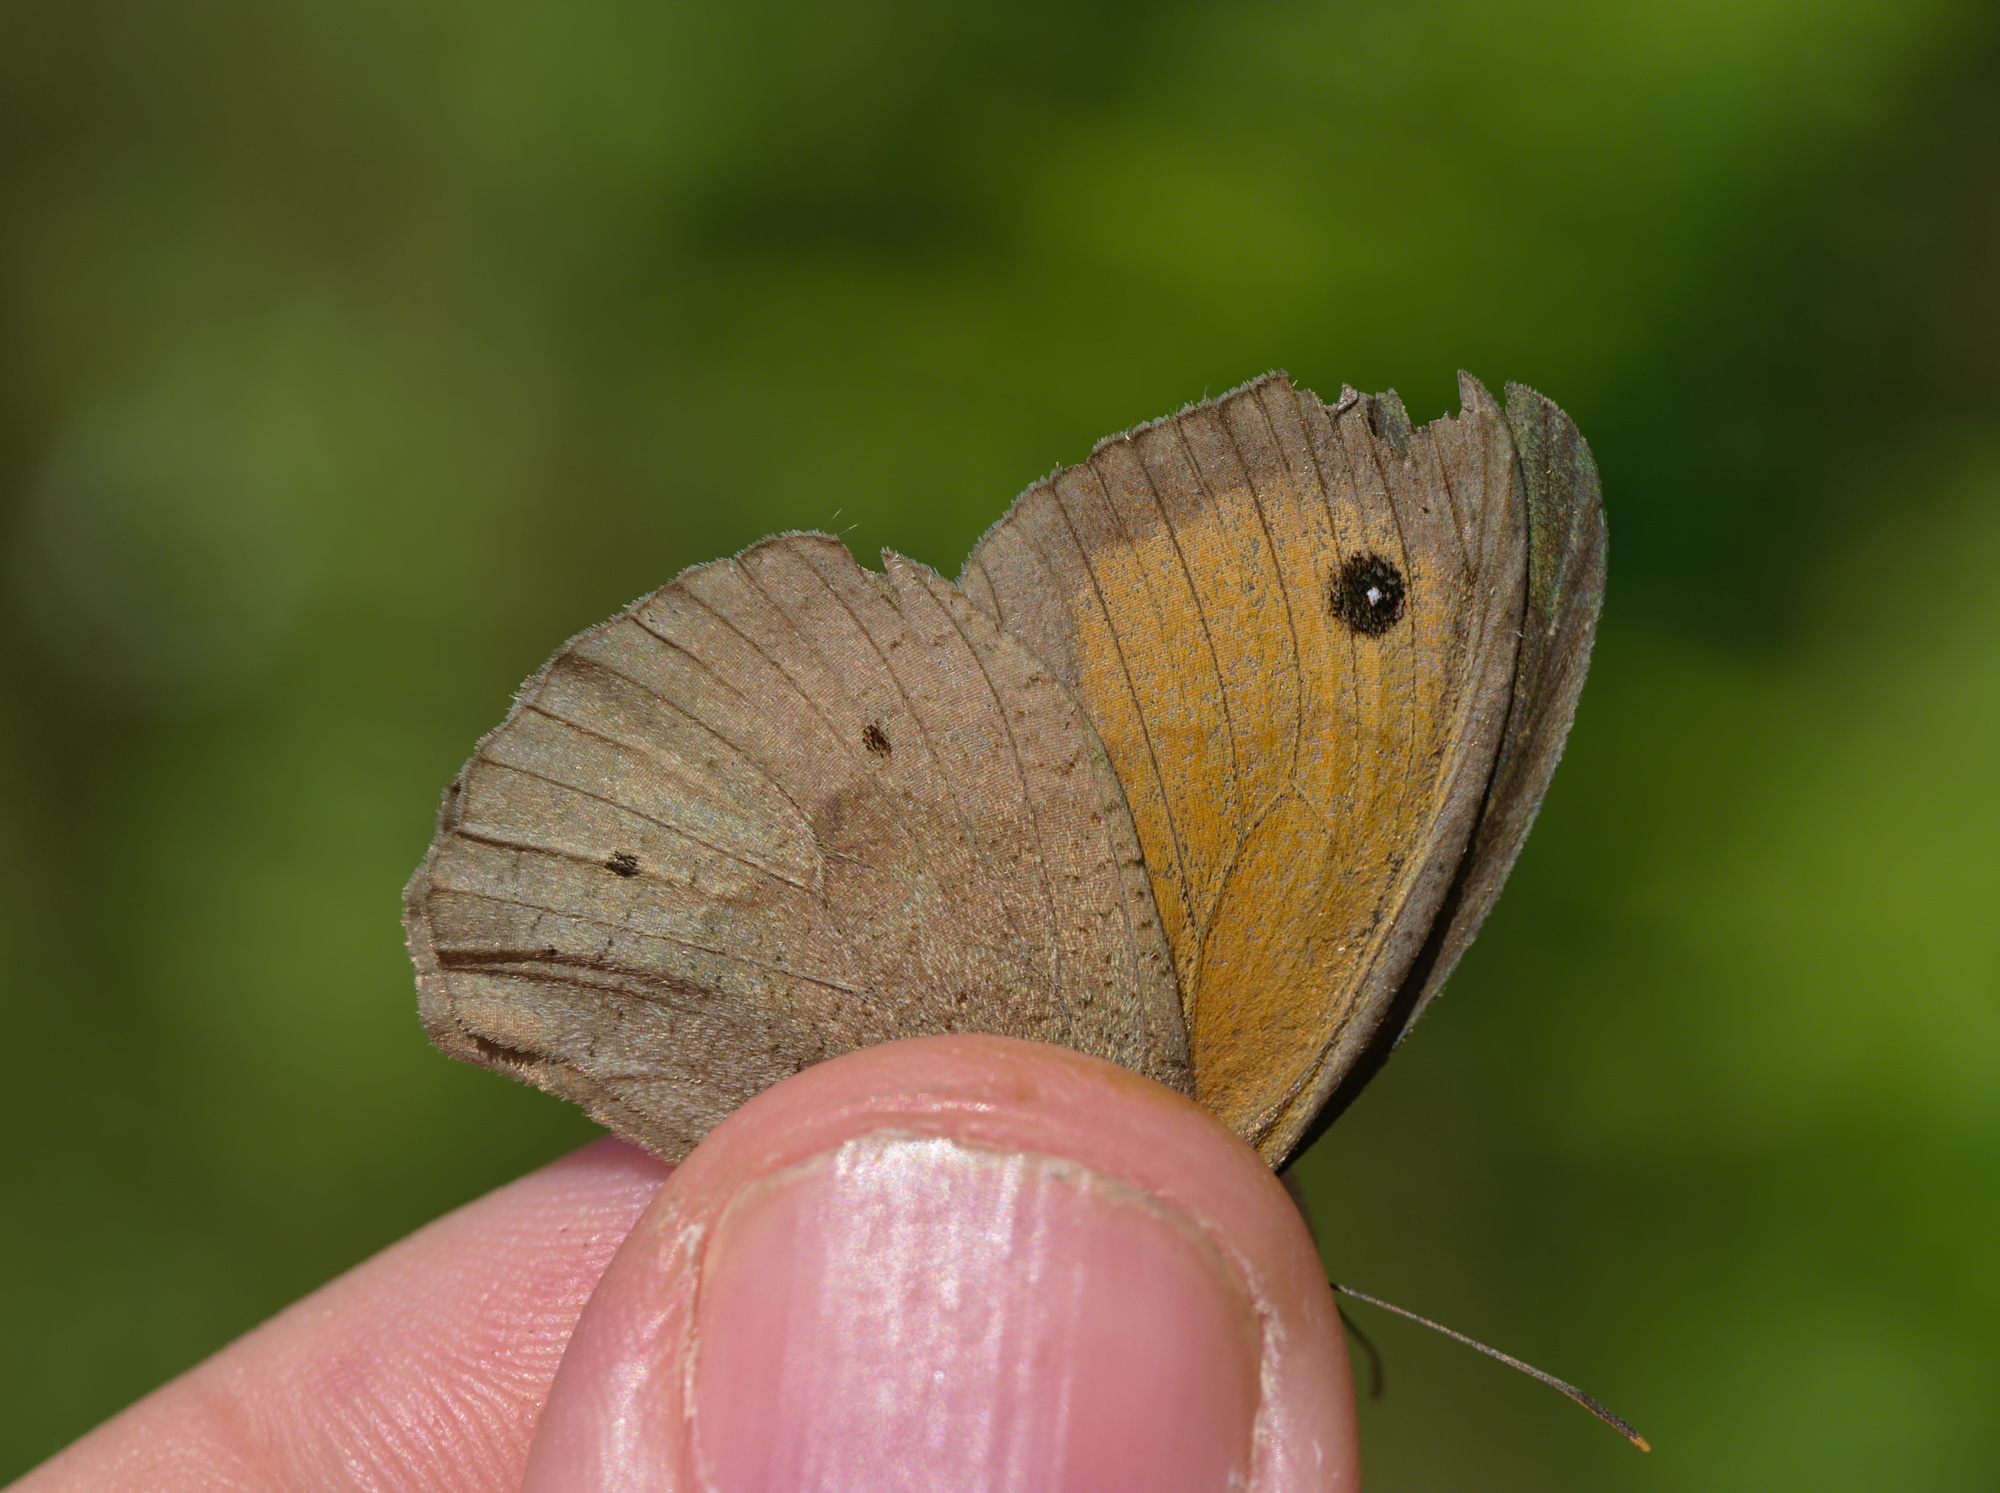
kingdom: Animalia
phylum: Arthropoda
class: Insecta
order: Lepidoptera
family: Nymphalidae
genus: Maniola
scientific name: Maniola jurtina
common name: Meadow brown
